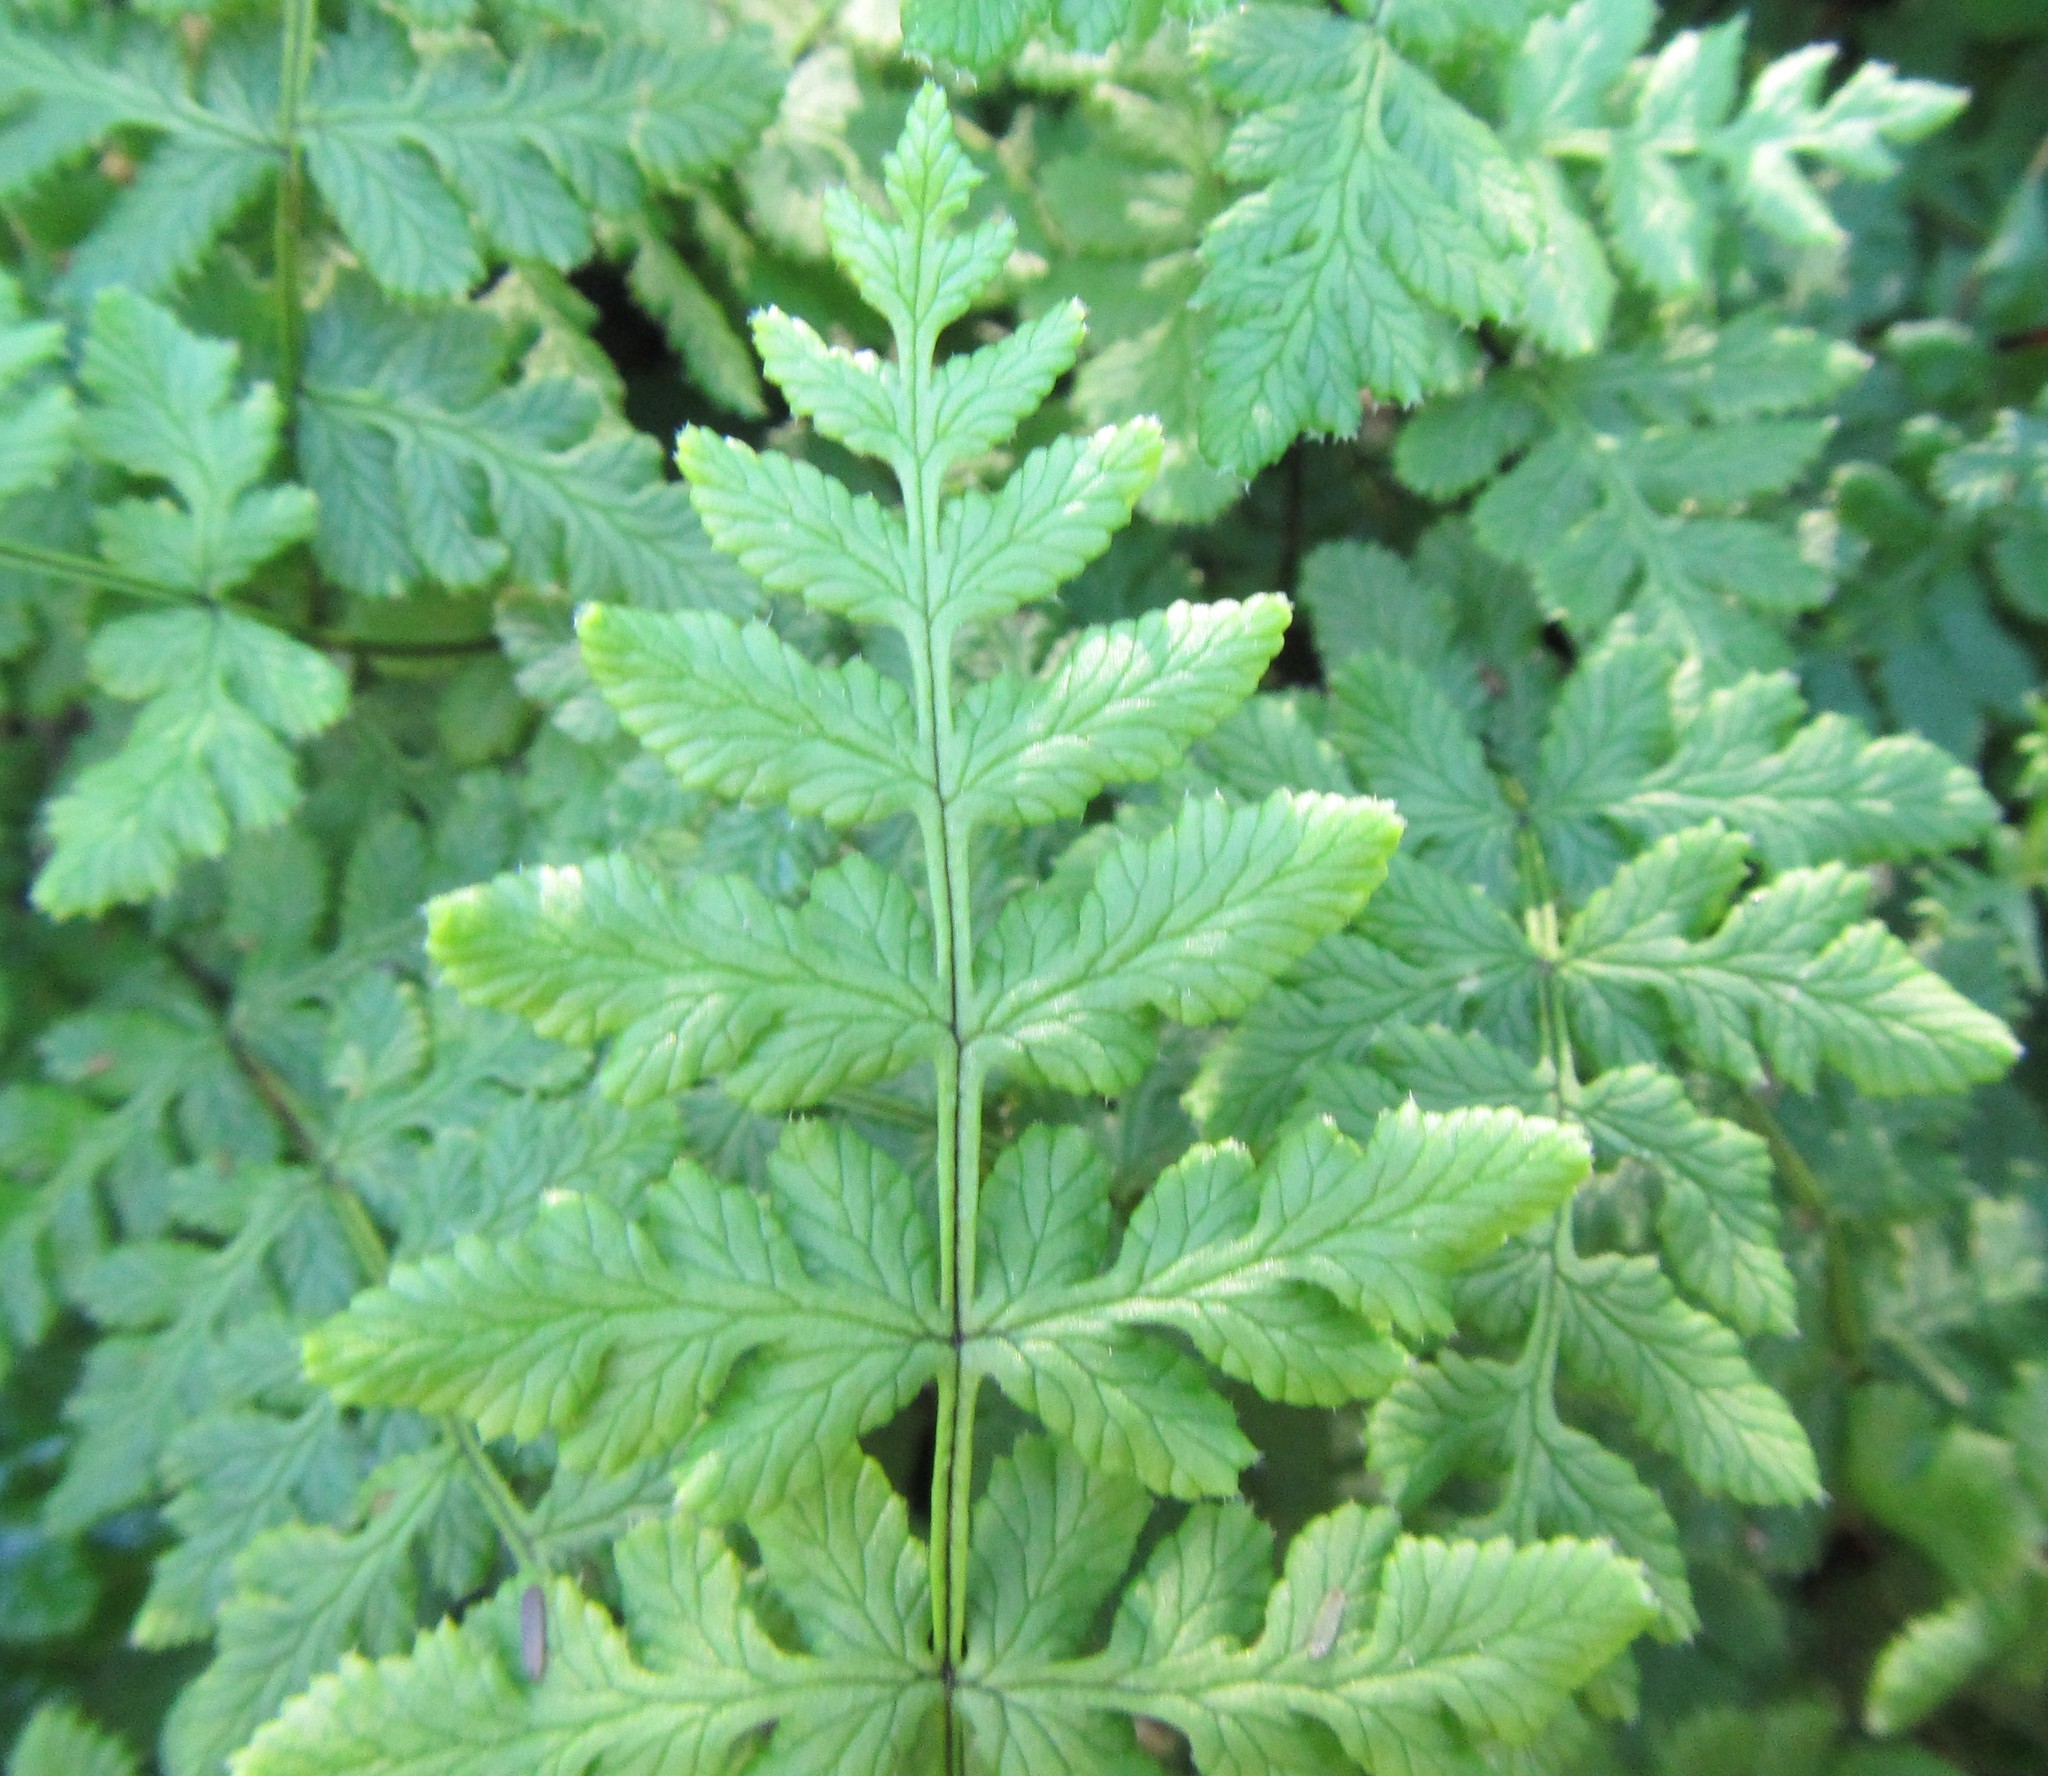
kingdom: Plantae
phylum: Tracheophyta
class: Polypodiopsida
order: Polypodiales
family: Pteridaceae
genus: Cheilanthes
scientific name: Cheilanthes capensis
